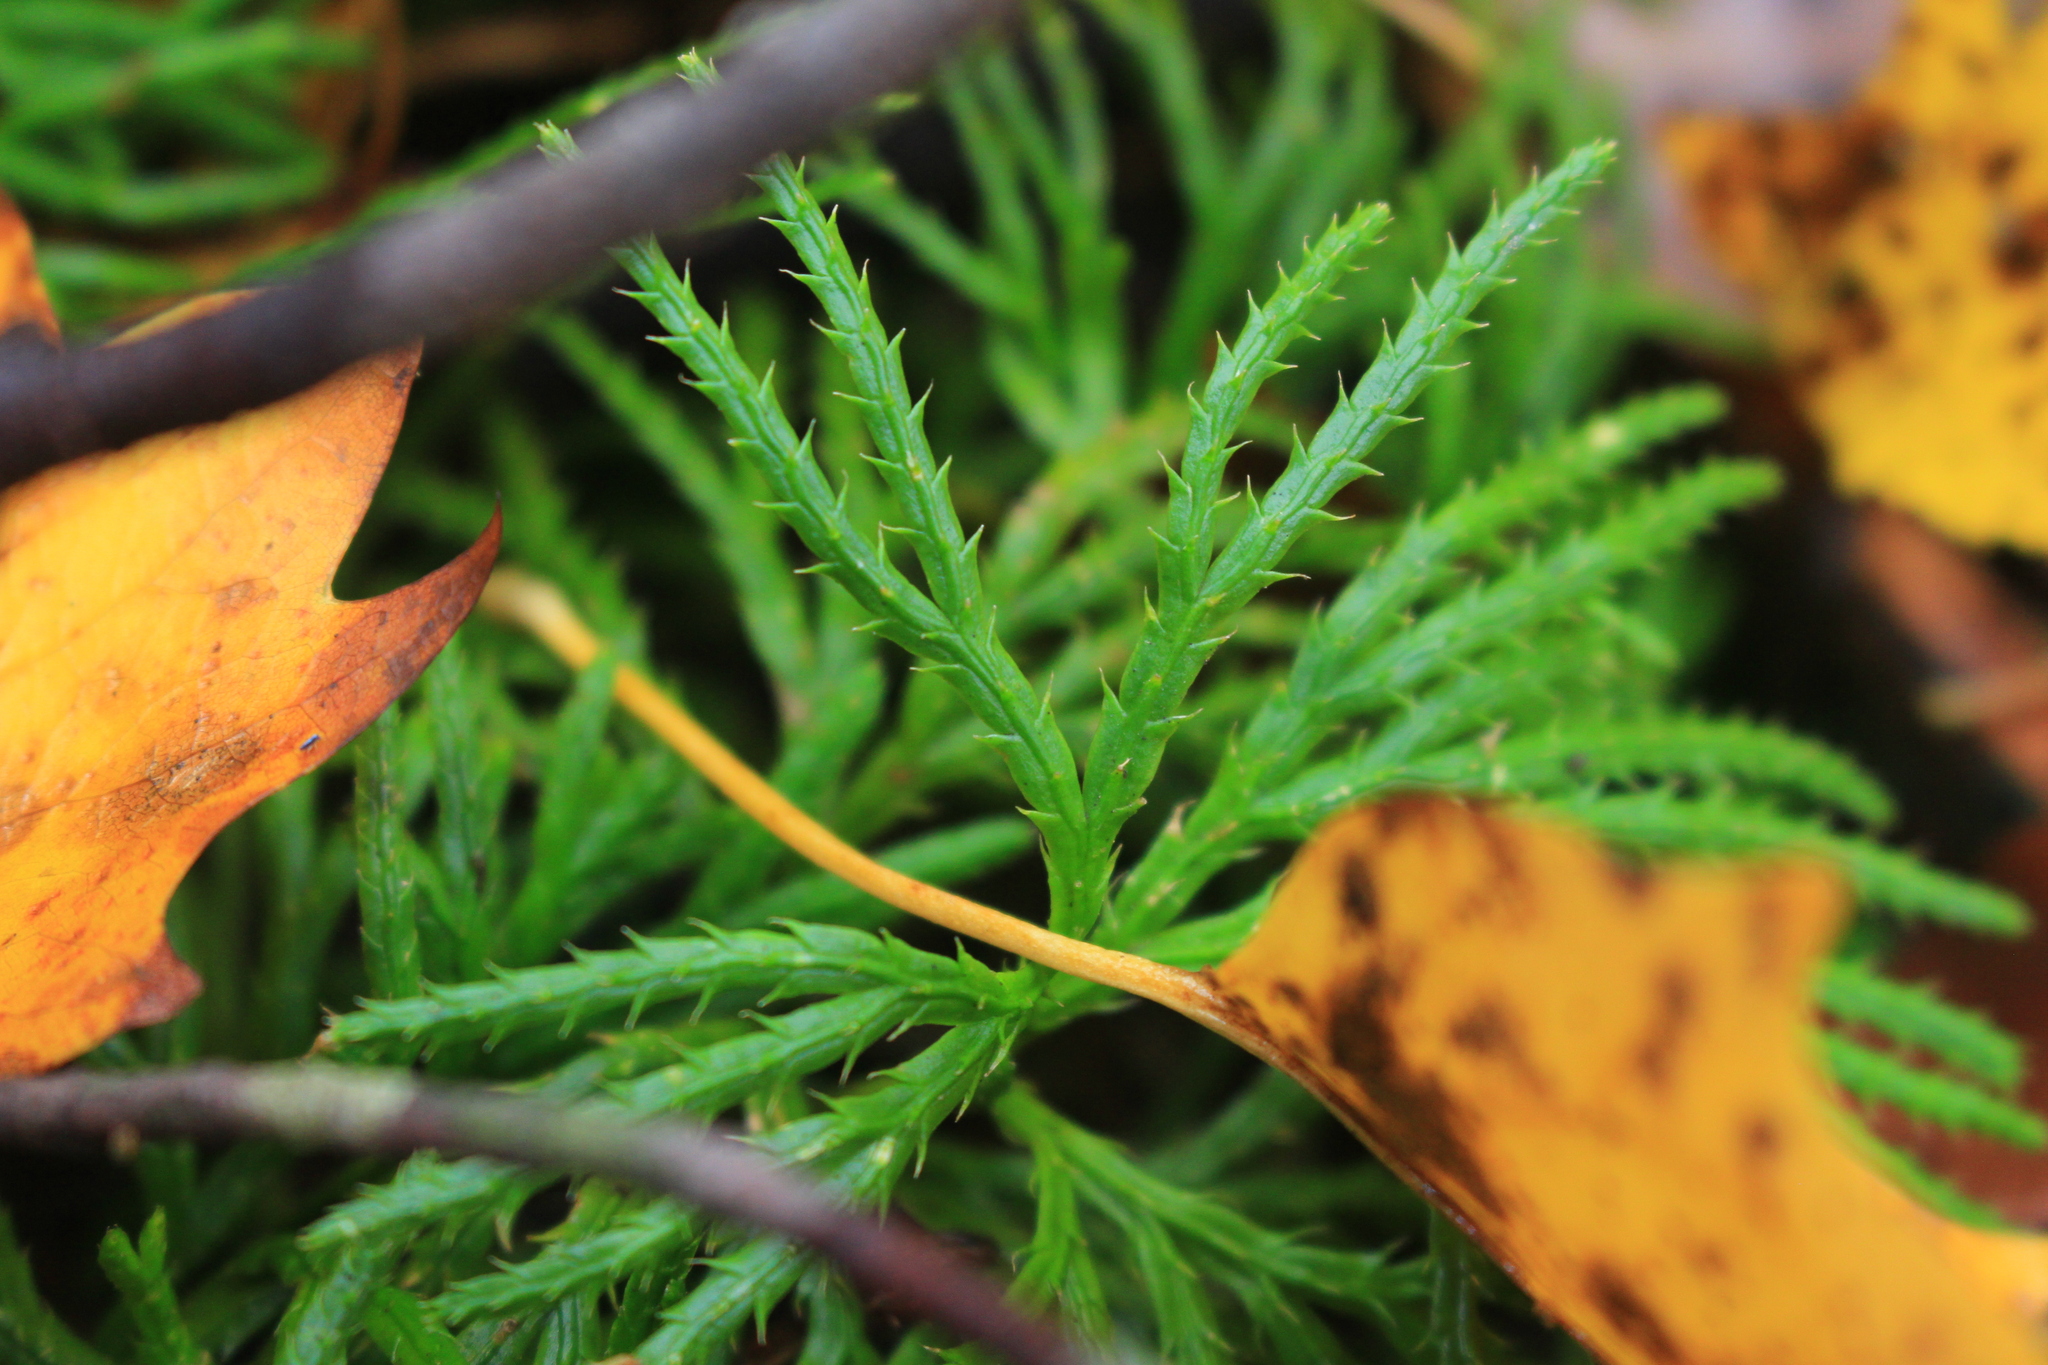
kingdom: Plantae
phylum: Tracheophyta
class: Lycopodiopsida
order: Lycopodiales
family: Lycopodiaceae
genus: Diphasiastrum
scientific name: Diphasiastrum digitatum
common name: Southern running-pine
